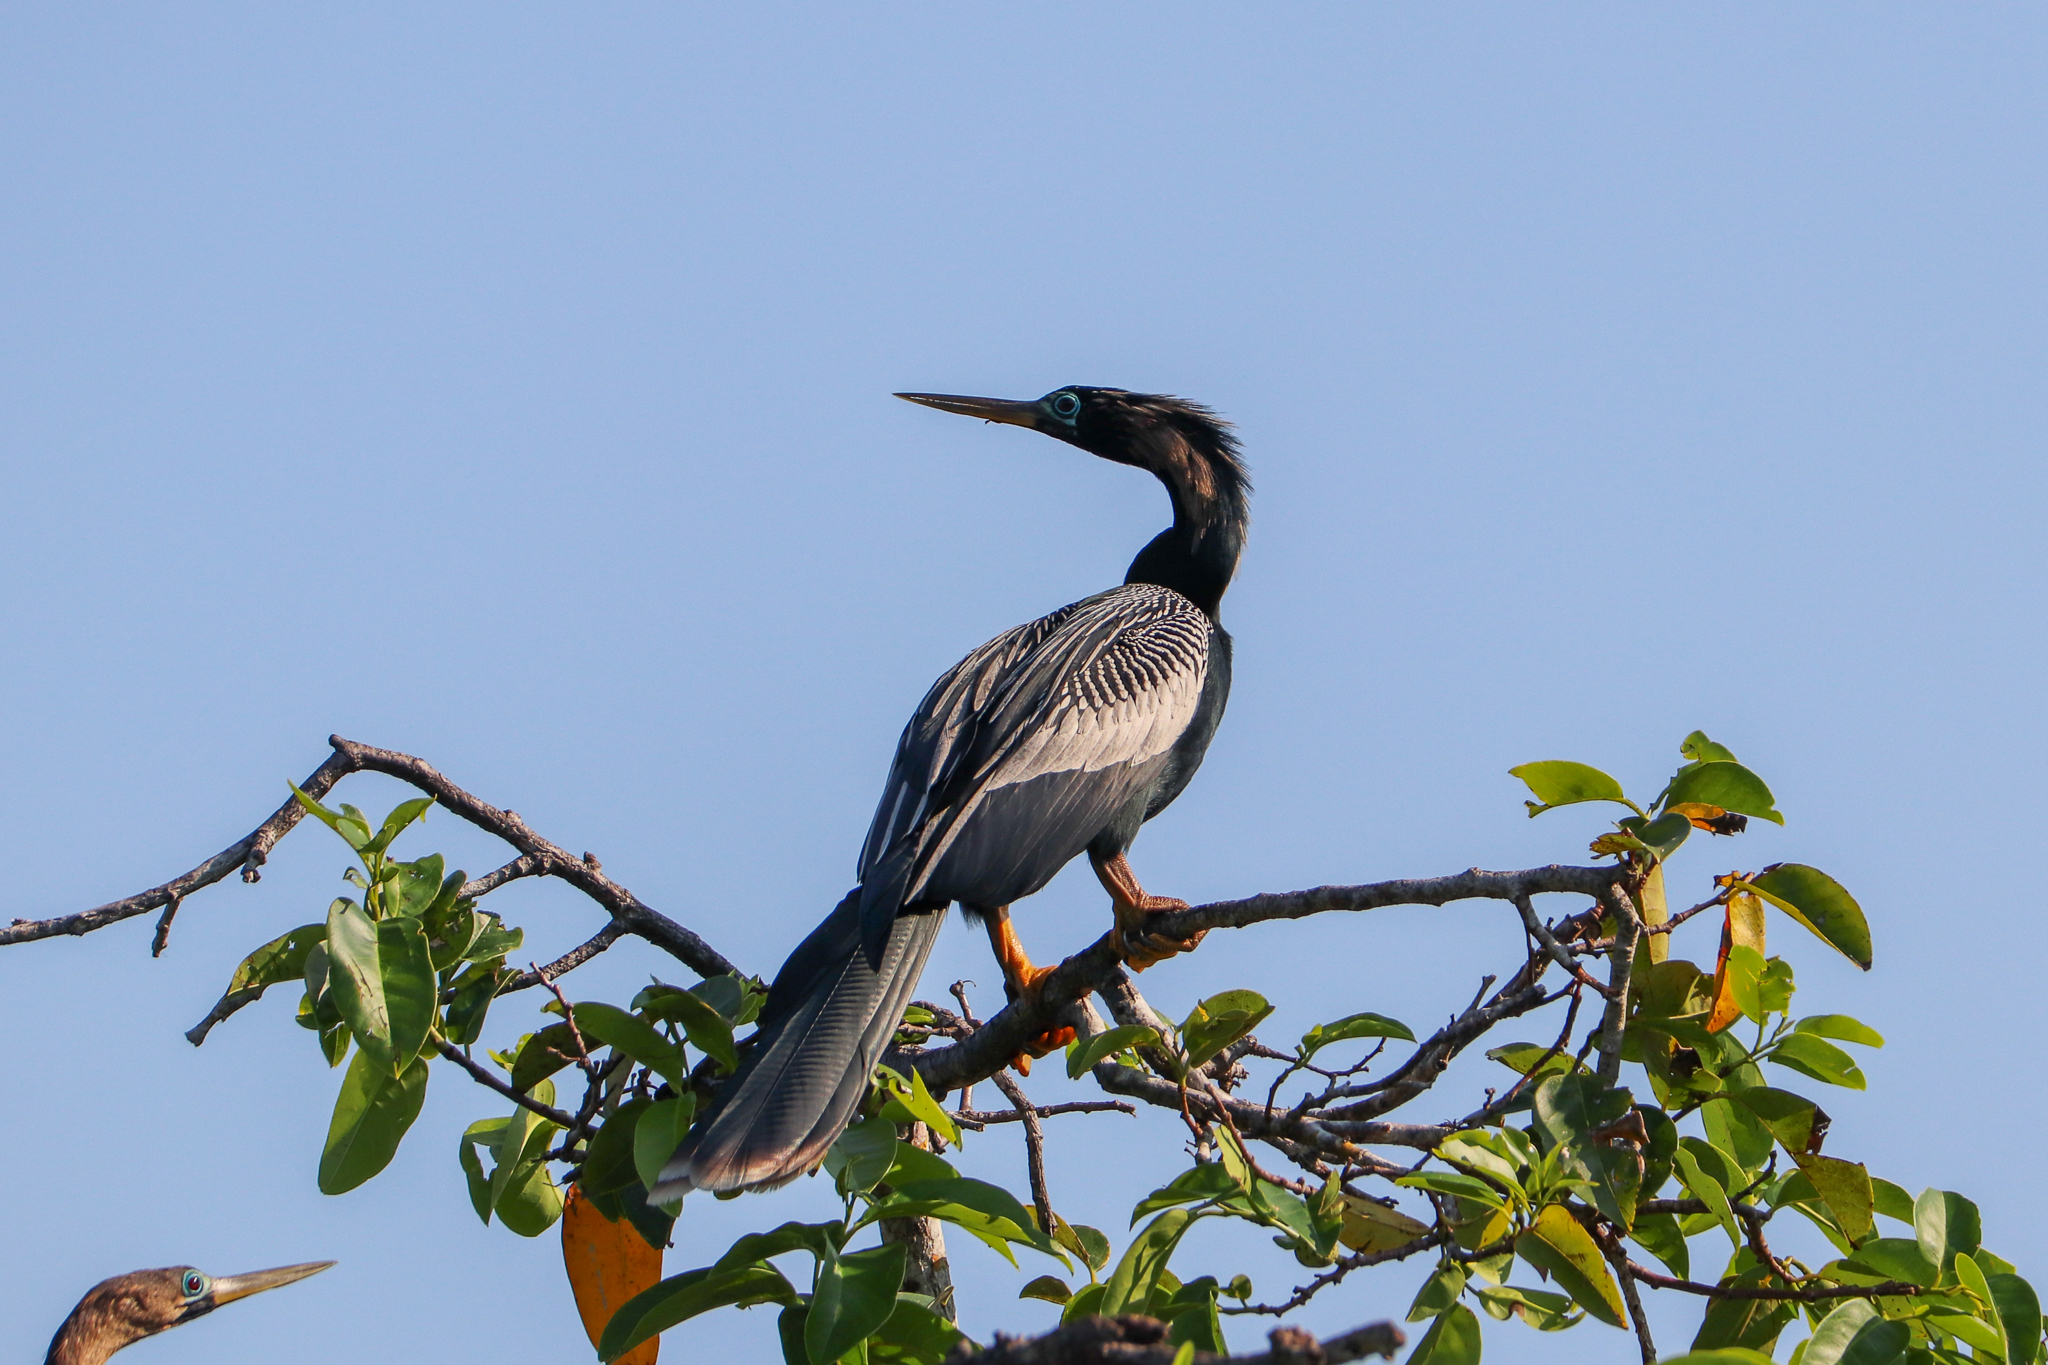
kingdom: Animalia
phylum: Chordata
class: Aves
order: Suliformes
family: Anhingidae
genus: Anhinga
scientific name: Anhinga anhinga
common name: Anhinga
